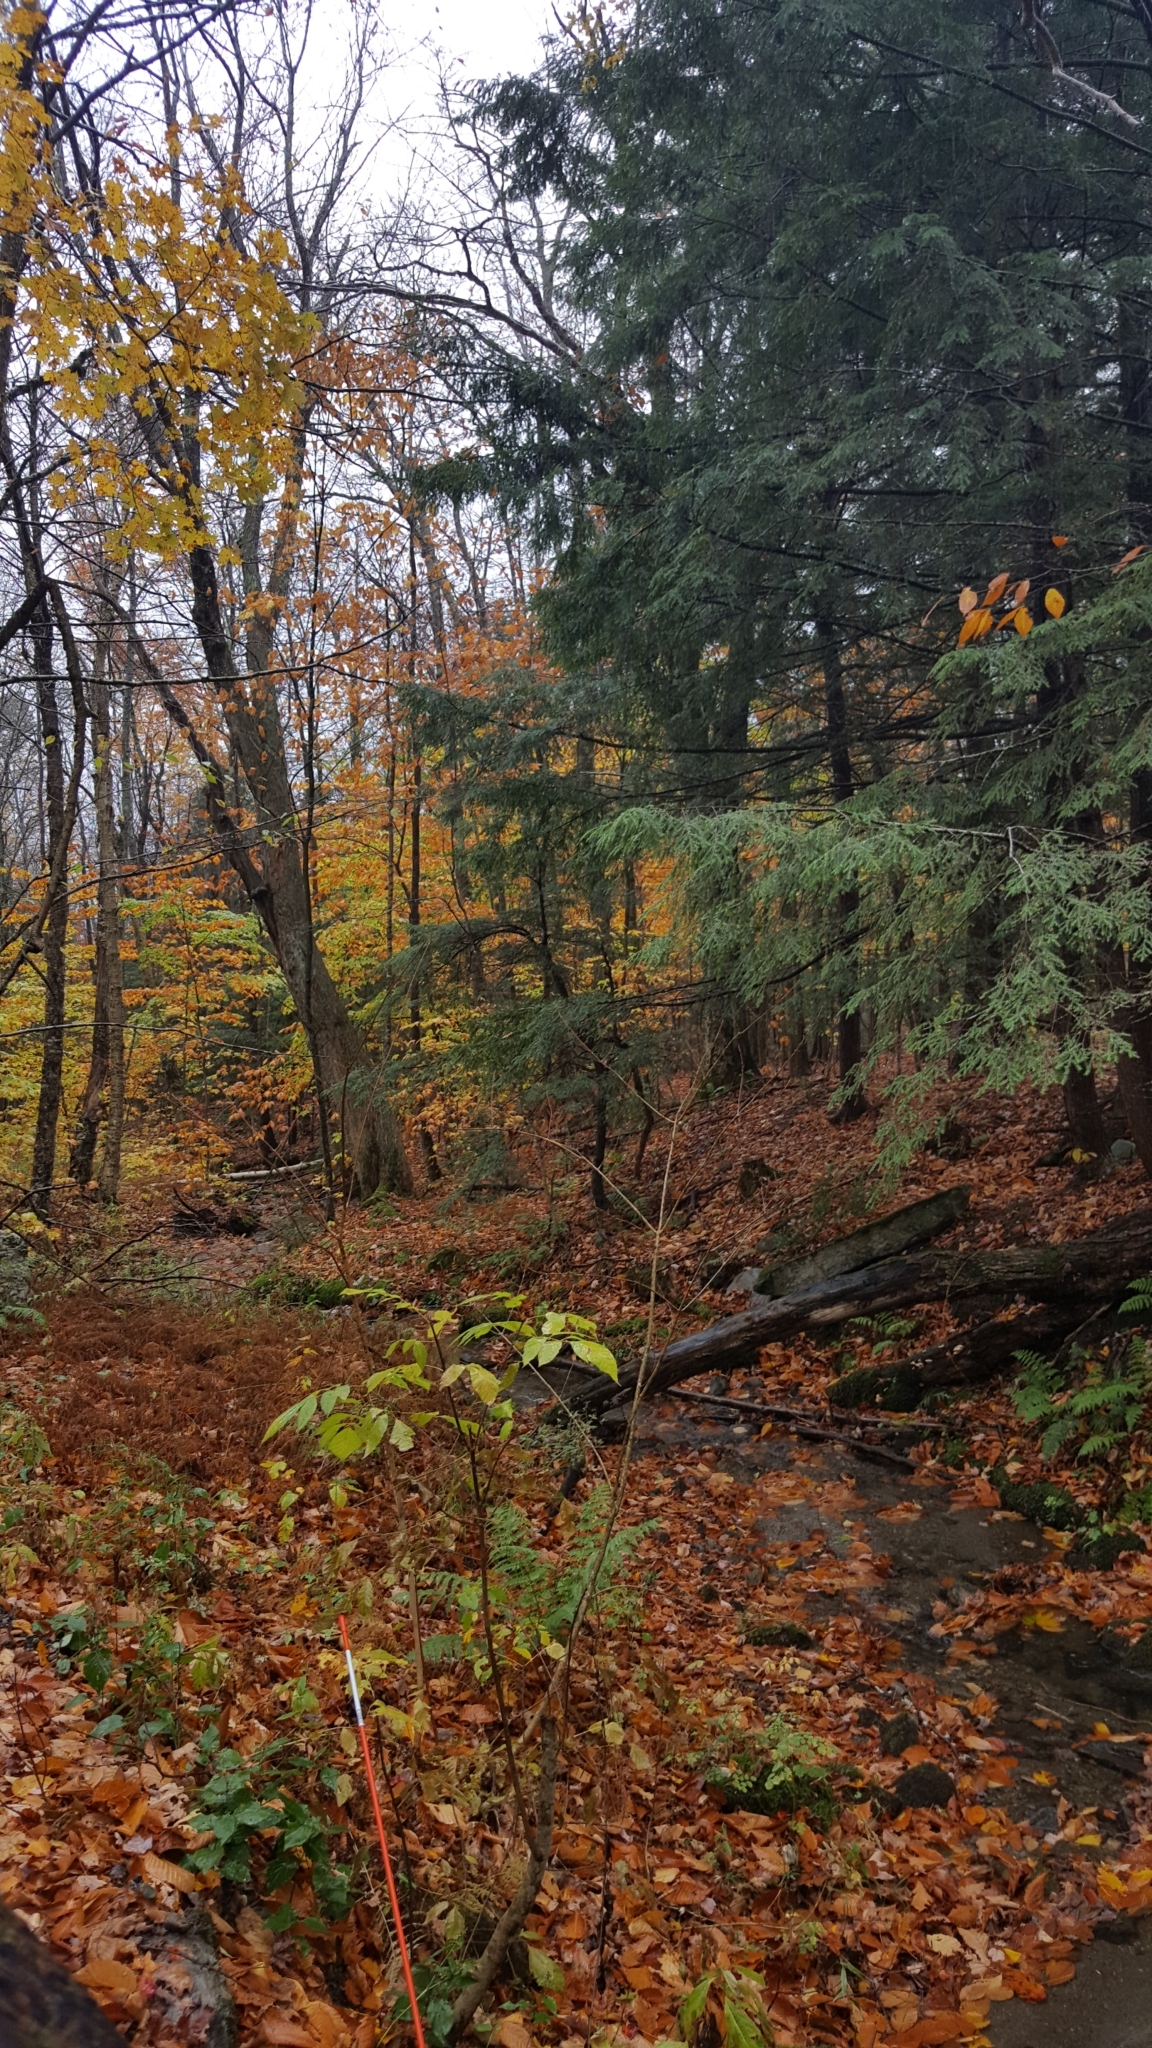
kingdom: Plantae
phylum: Tracheophyta
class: Pinopsida
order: Pinales
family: Pinaceae
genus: Tsuga
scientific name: Tsuga canadensis
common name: Eastern hemlock
